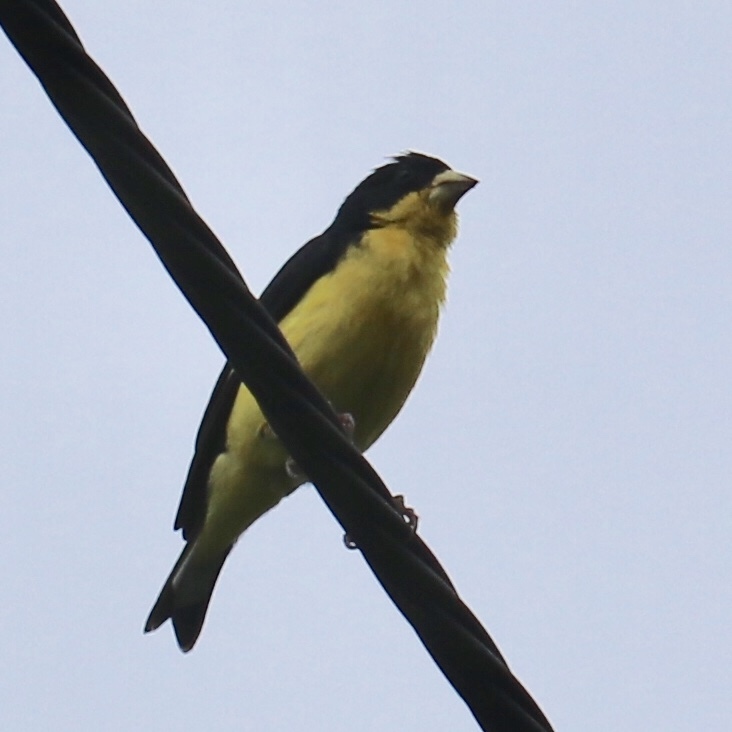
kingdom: Animalia
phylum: Chordata
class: Aves
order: Passeriformes
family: Fringillidae
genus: Spinus
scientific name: Spinus psaltria
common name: Lesser goldfinch
